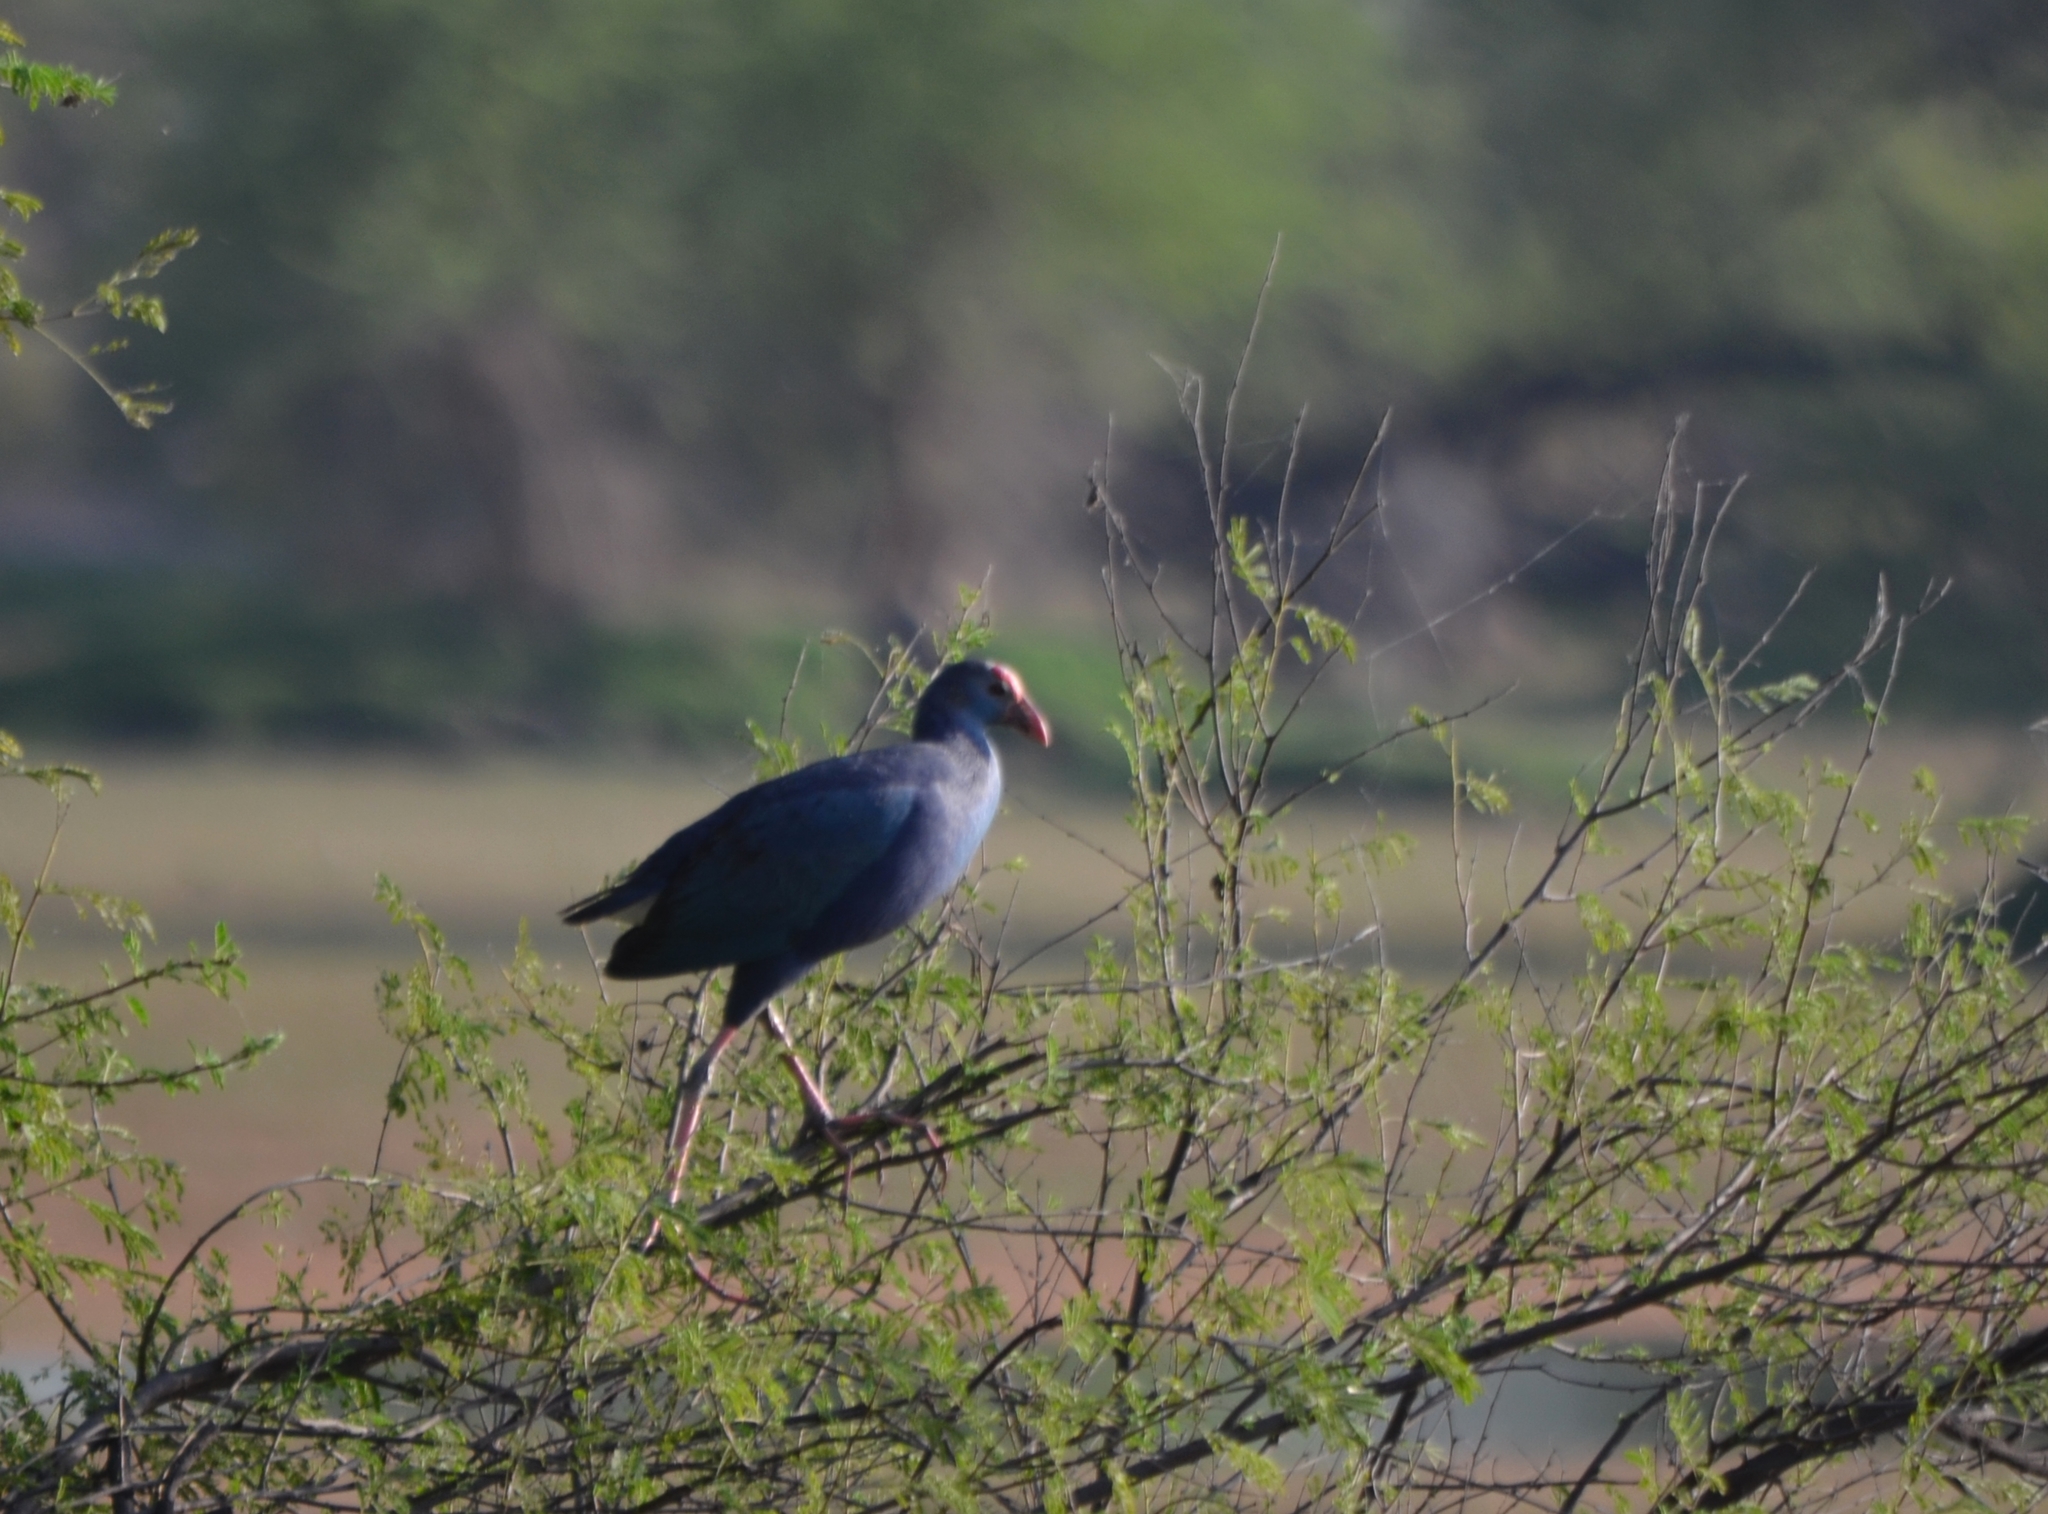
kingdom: Animalia
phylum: Chordata
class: Aves
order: Gruiformes
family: Rallidae
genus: Porphyrio
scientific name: Porphyrio porphyrio
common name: Purple swamphen
